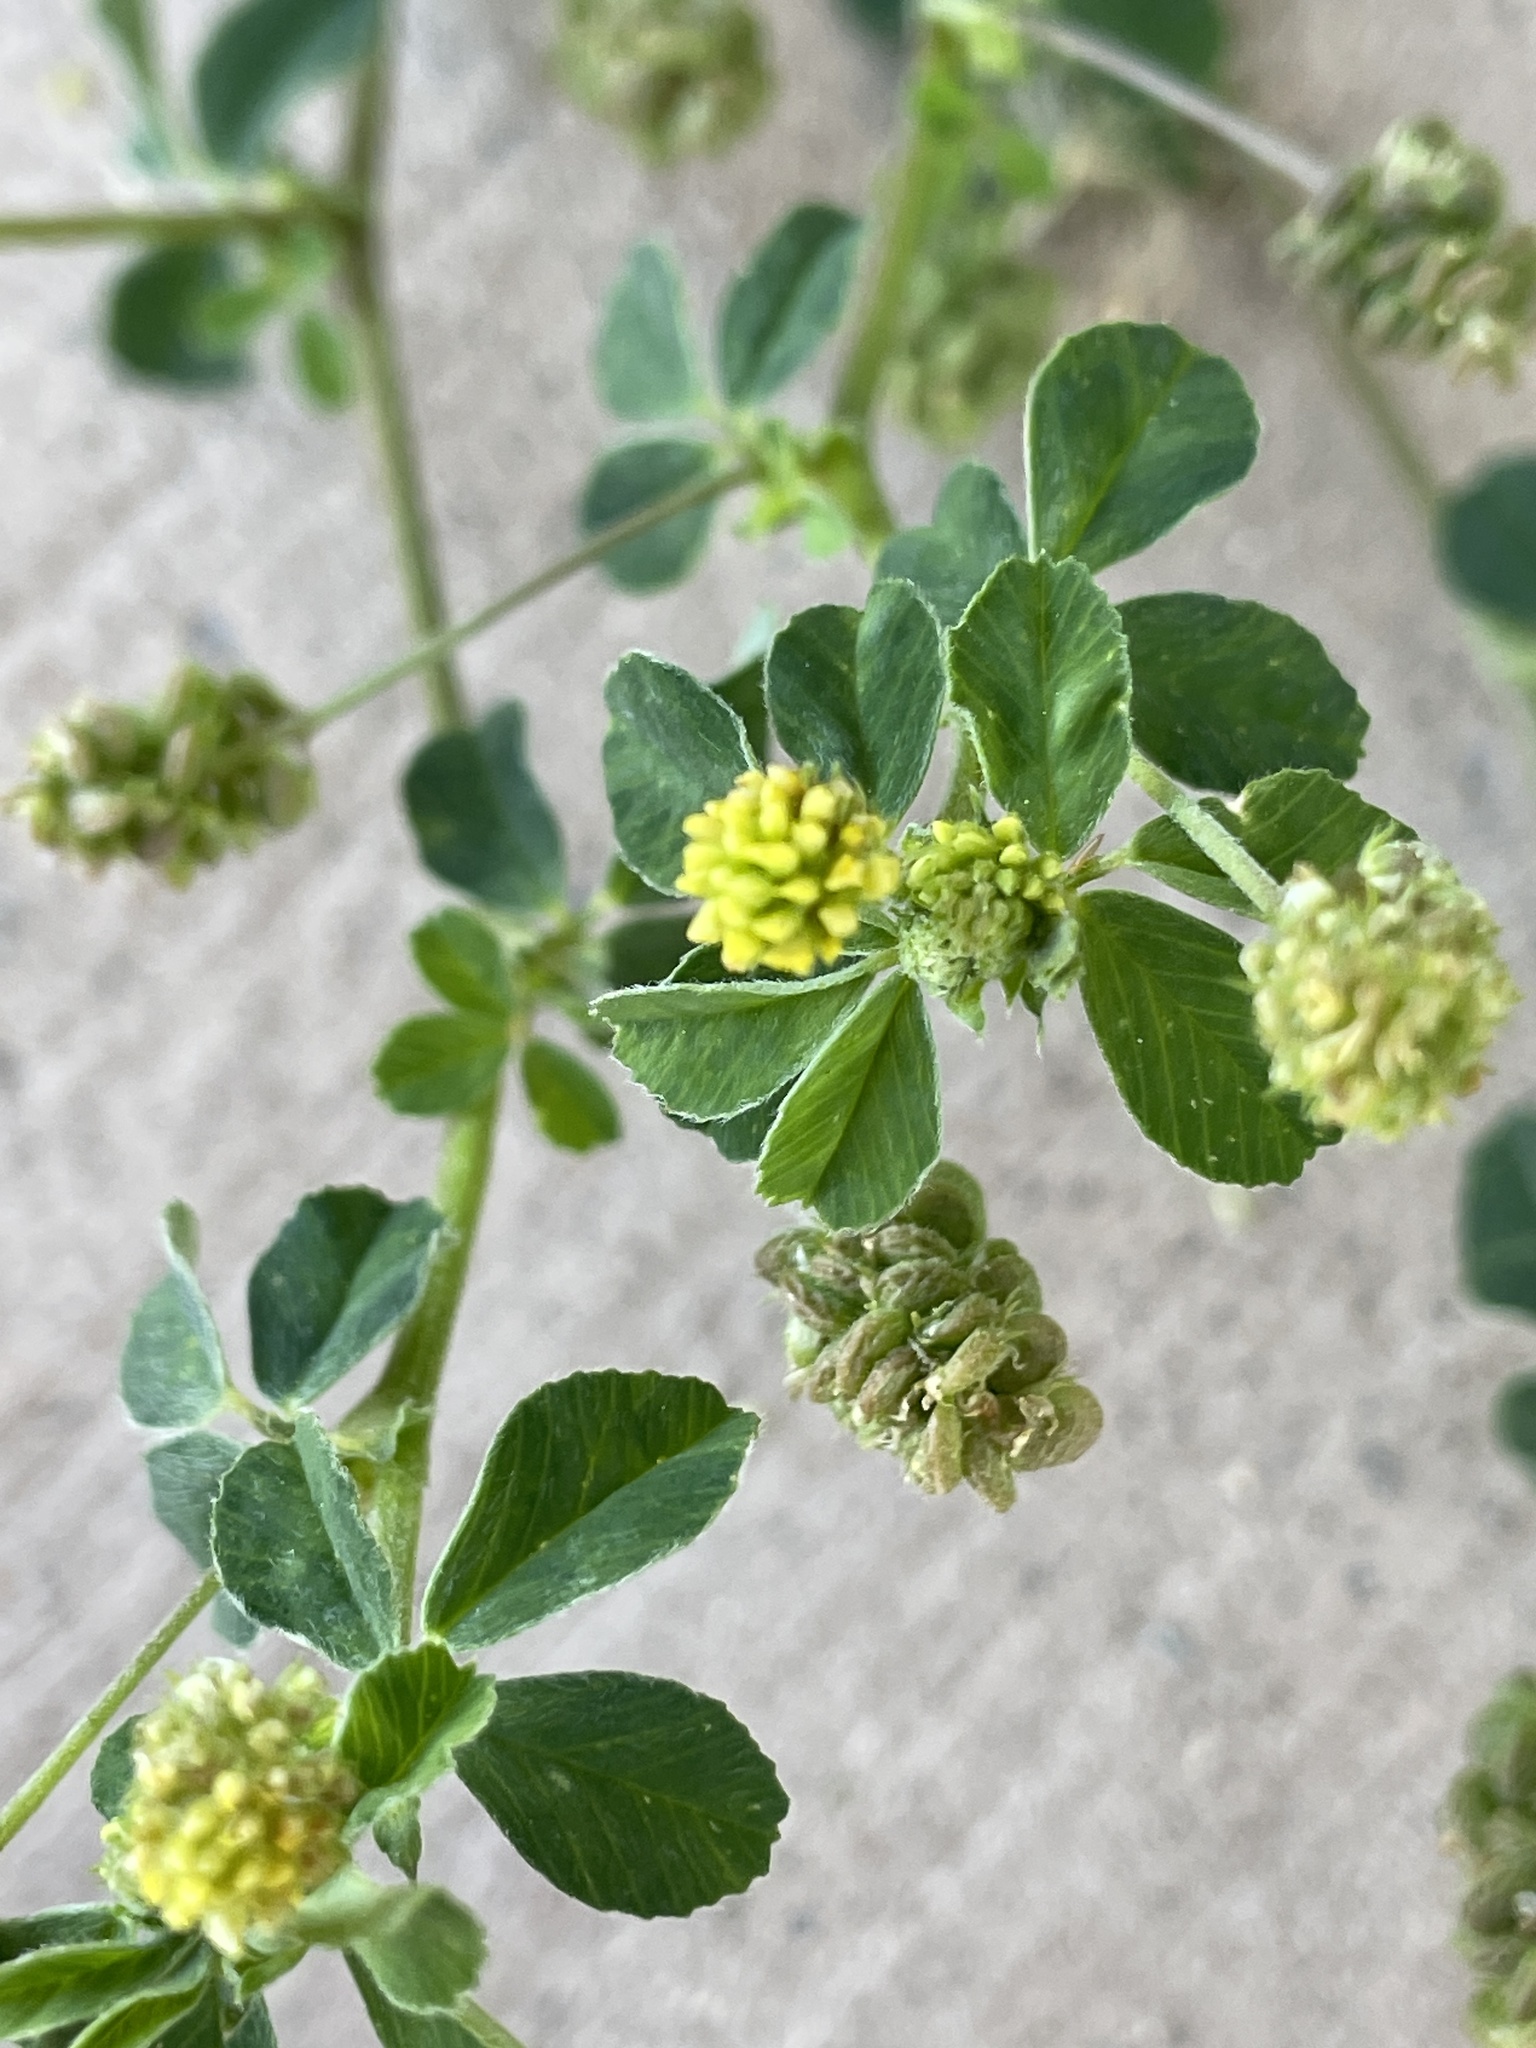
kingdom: Plantae
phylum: Tracheophyta
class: Magnoliopsida
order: Fabales
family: Fabaceae
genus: Medicago
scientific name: Medicago lupulina
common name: Black medick
